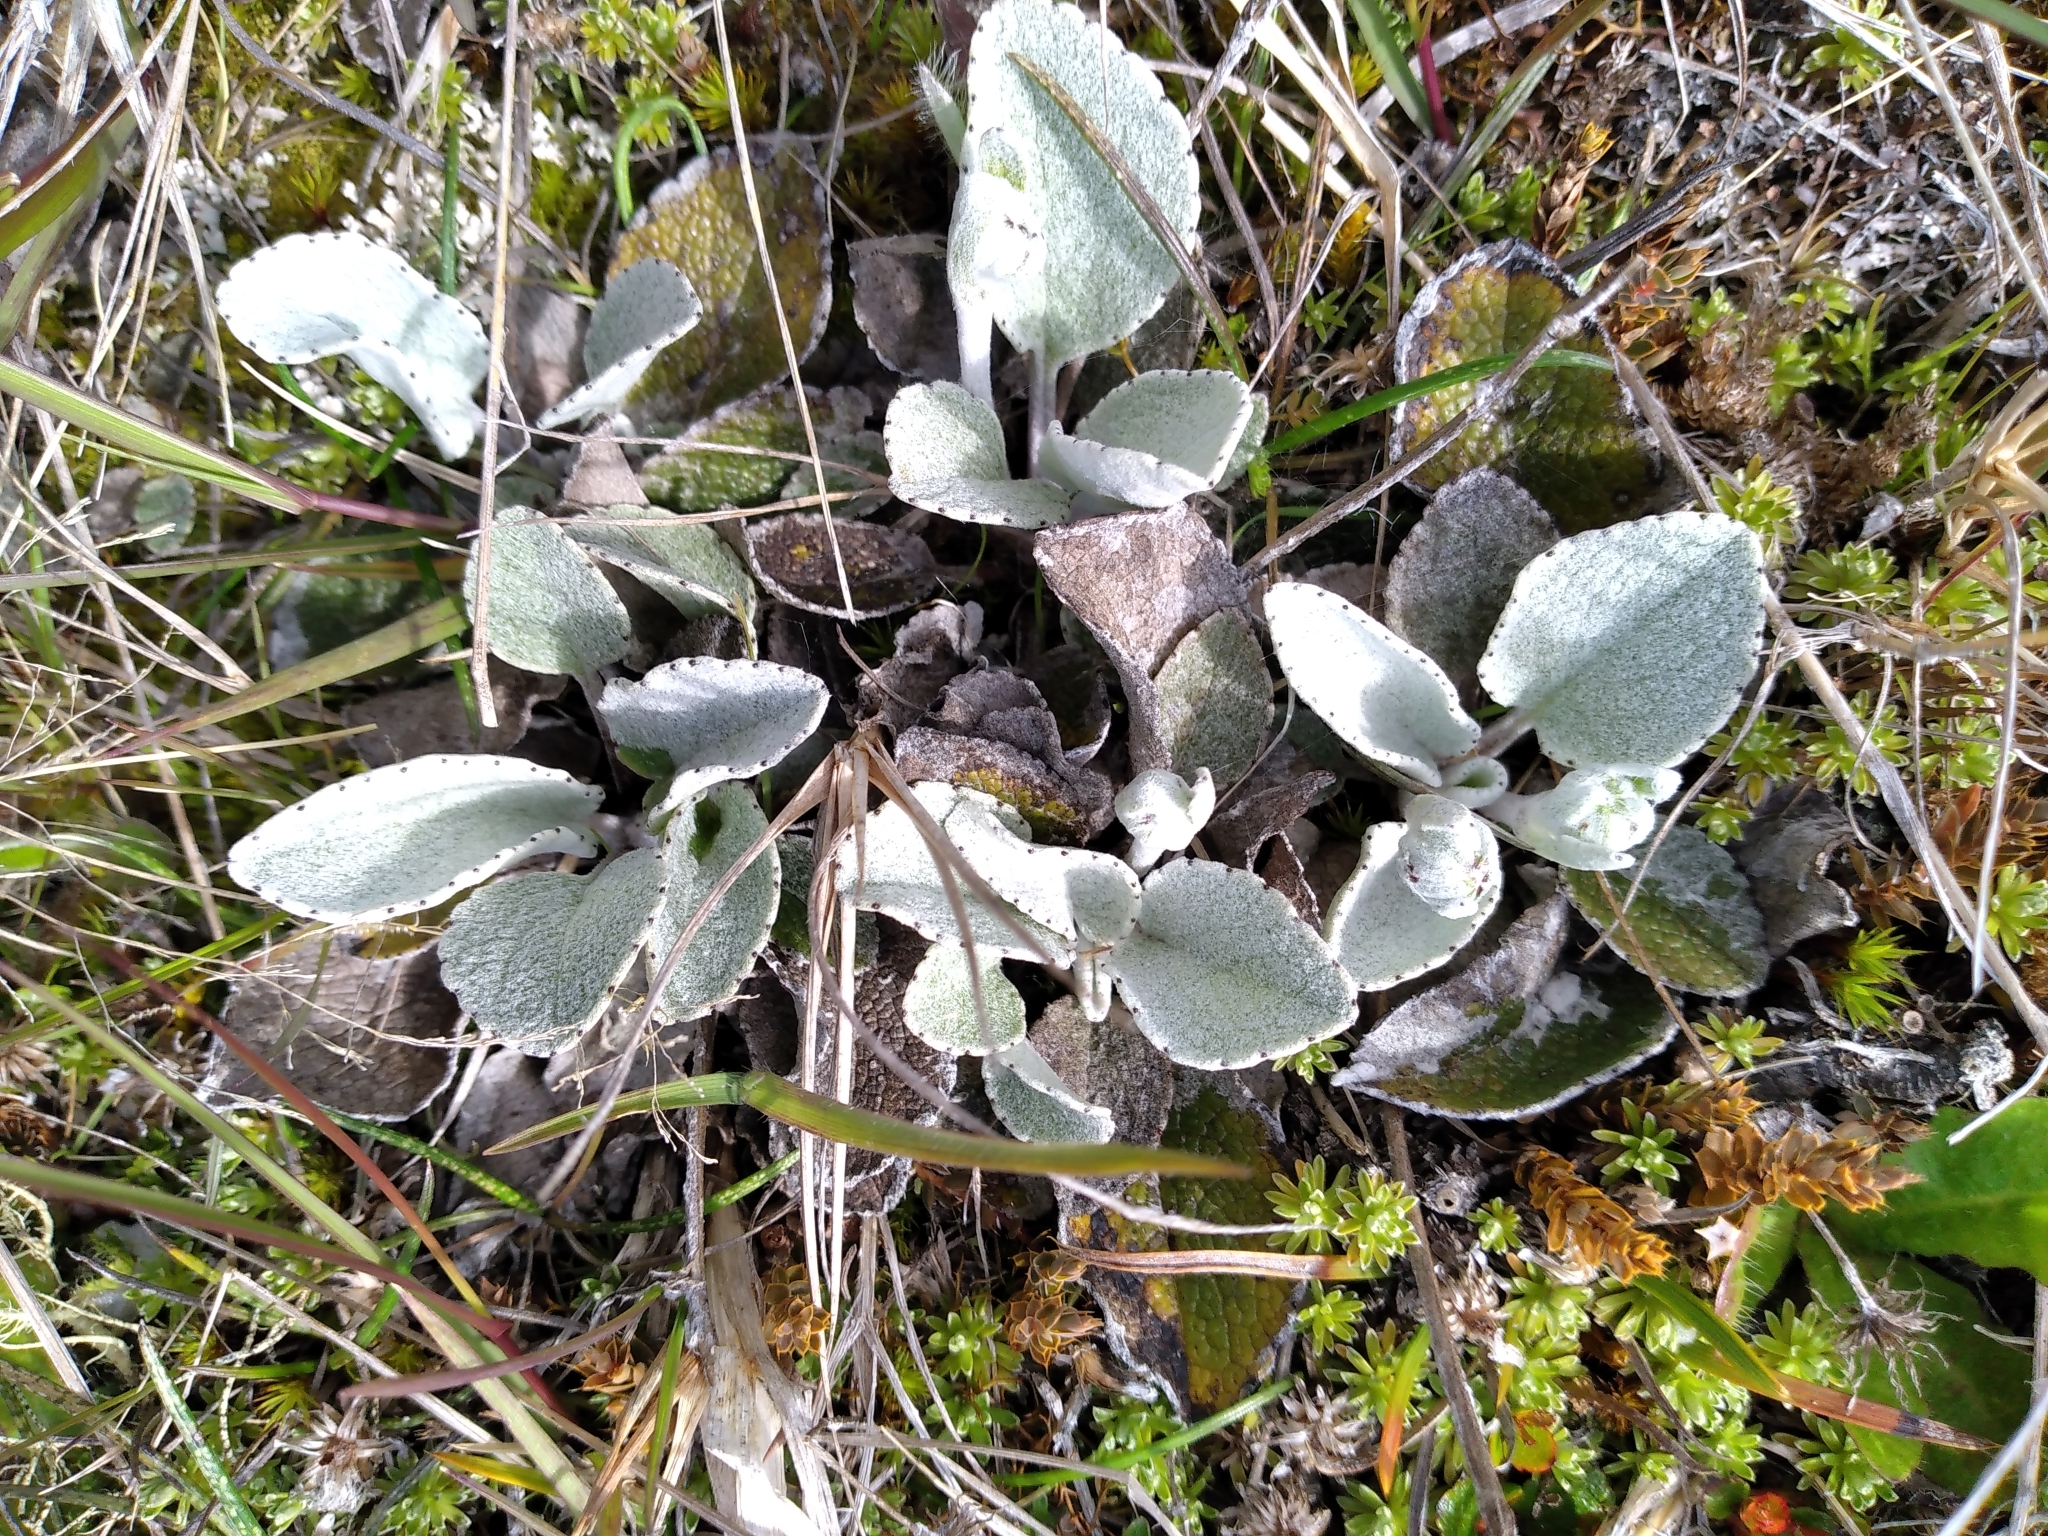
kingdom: Plantae
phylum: Tracheophyta
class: Magnoliopsida
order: Asterales
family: Asteraceae
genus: Brachyglottis
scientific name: Brachyglottis haastii
